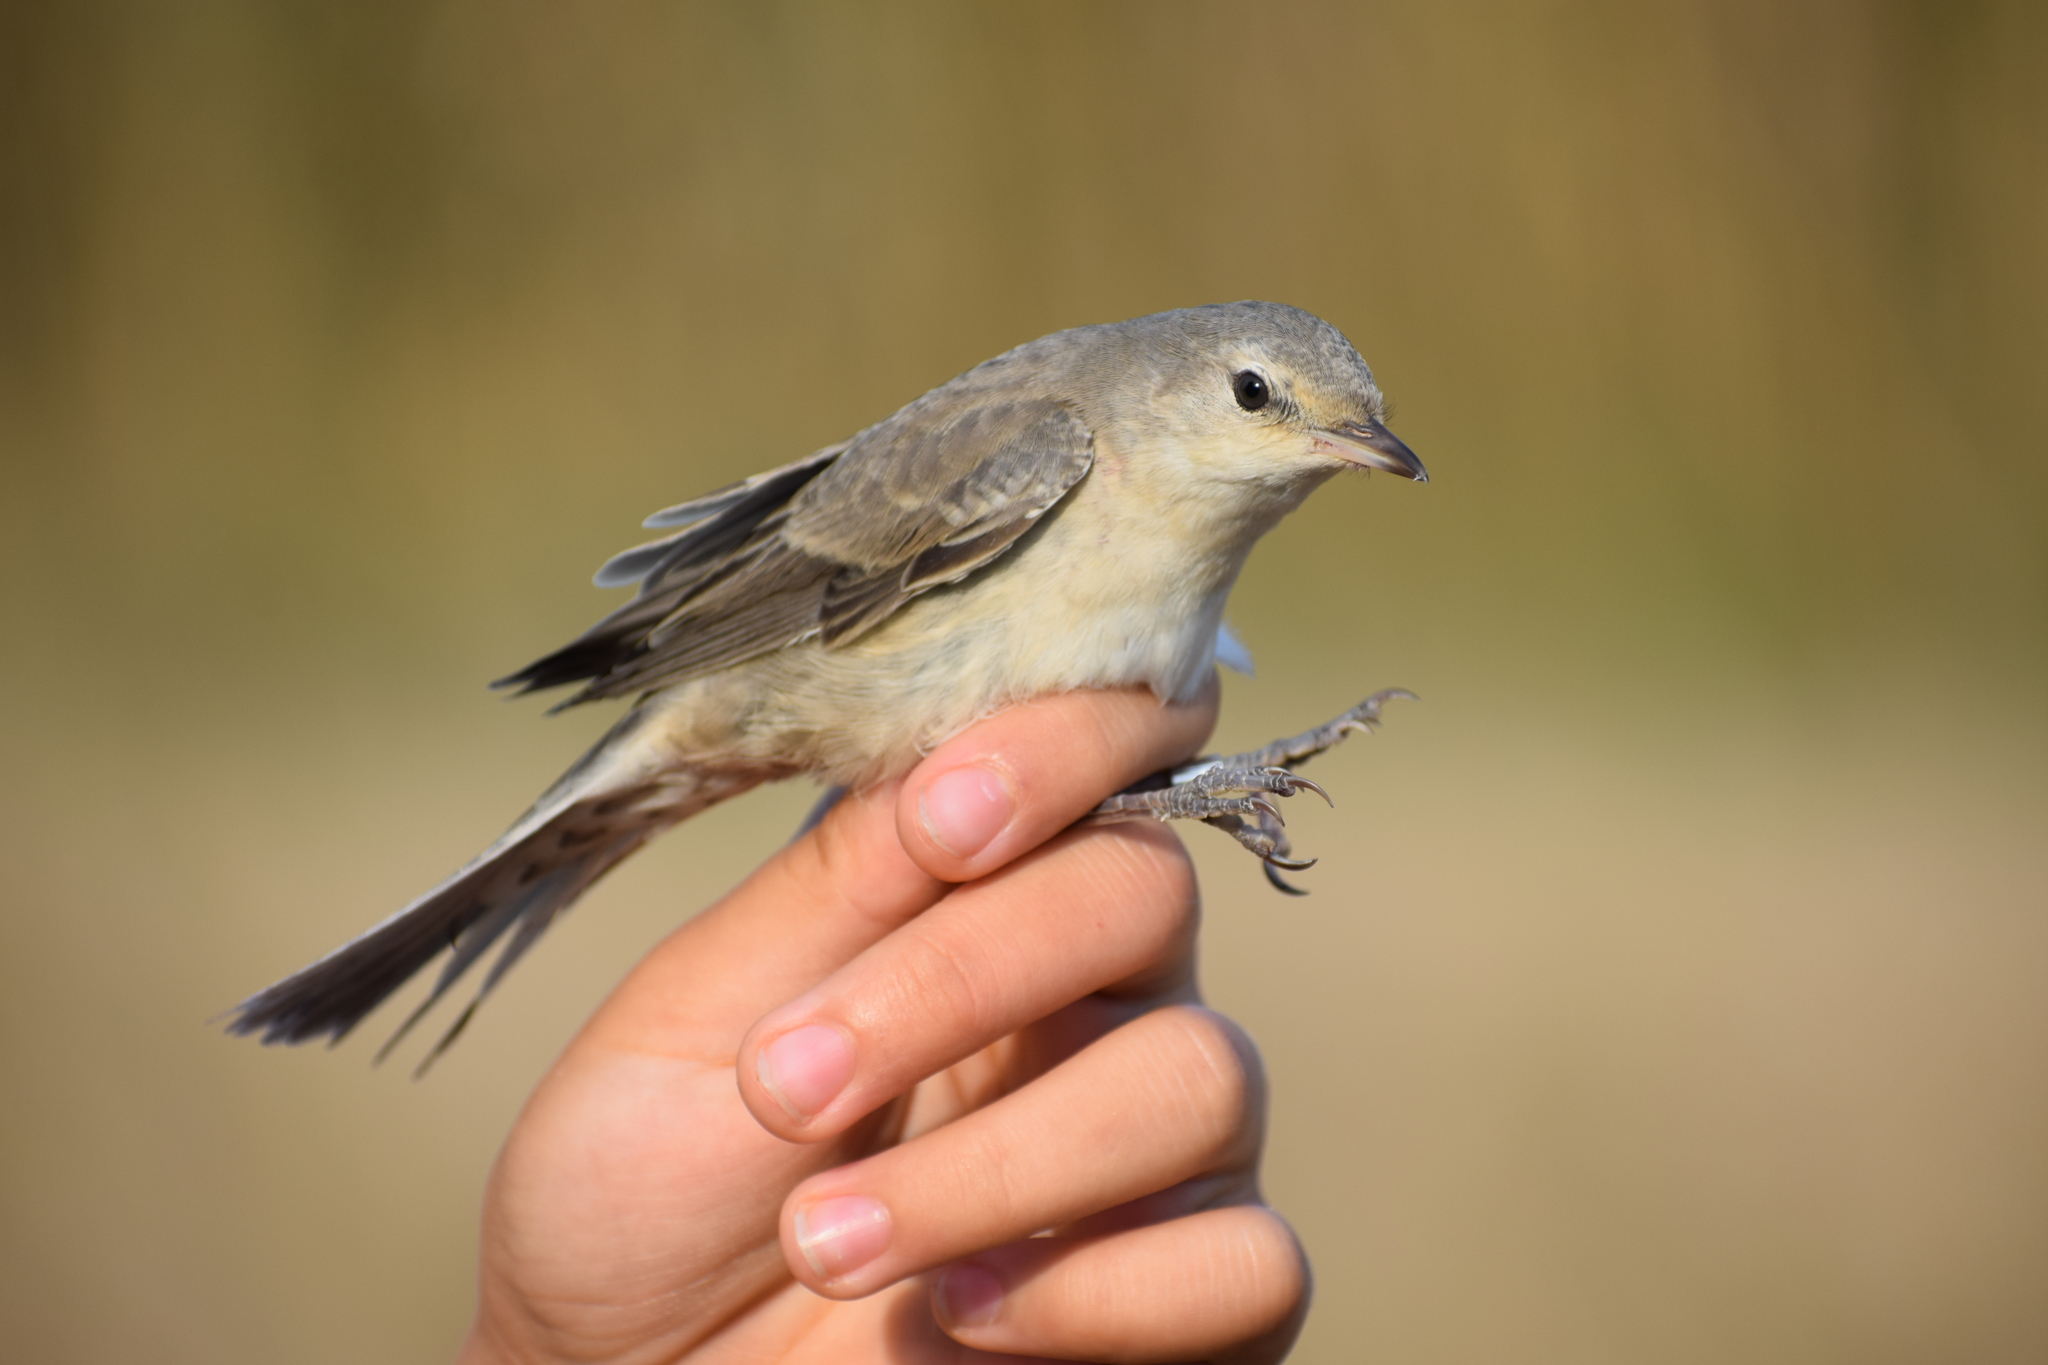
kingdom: Animalia
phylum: Chordata
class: Aves
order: Passeriformes
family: Sylviidae
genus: Sylvia
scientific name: Sylvia nisoria
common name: Barred warbler
